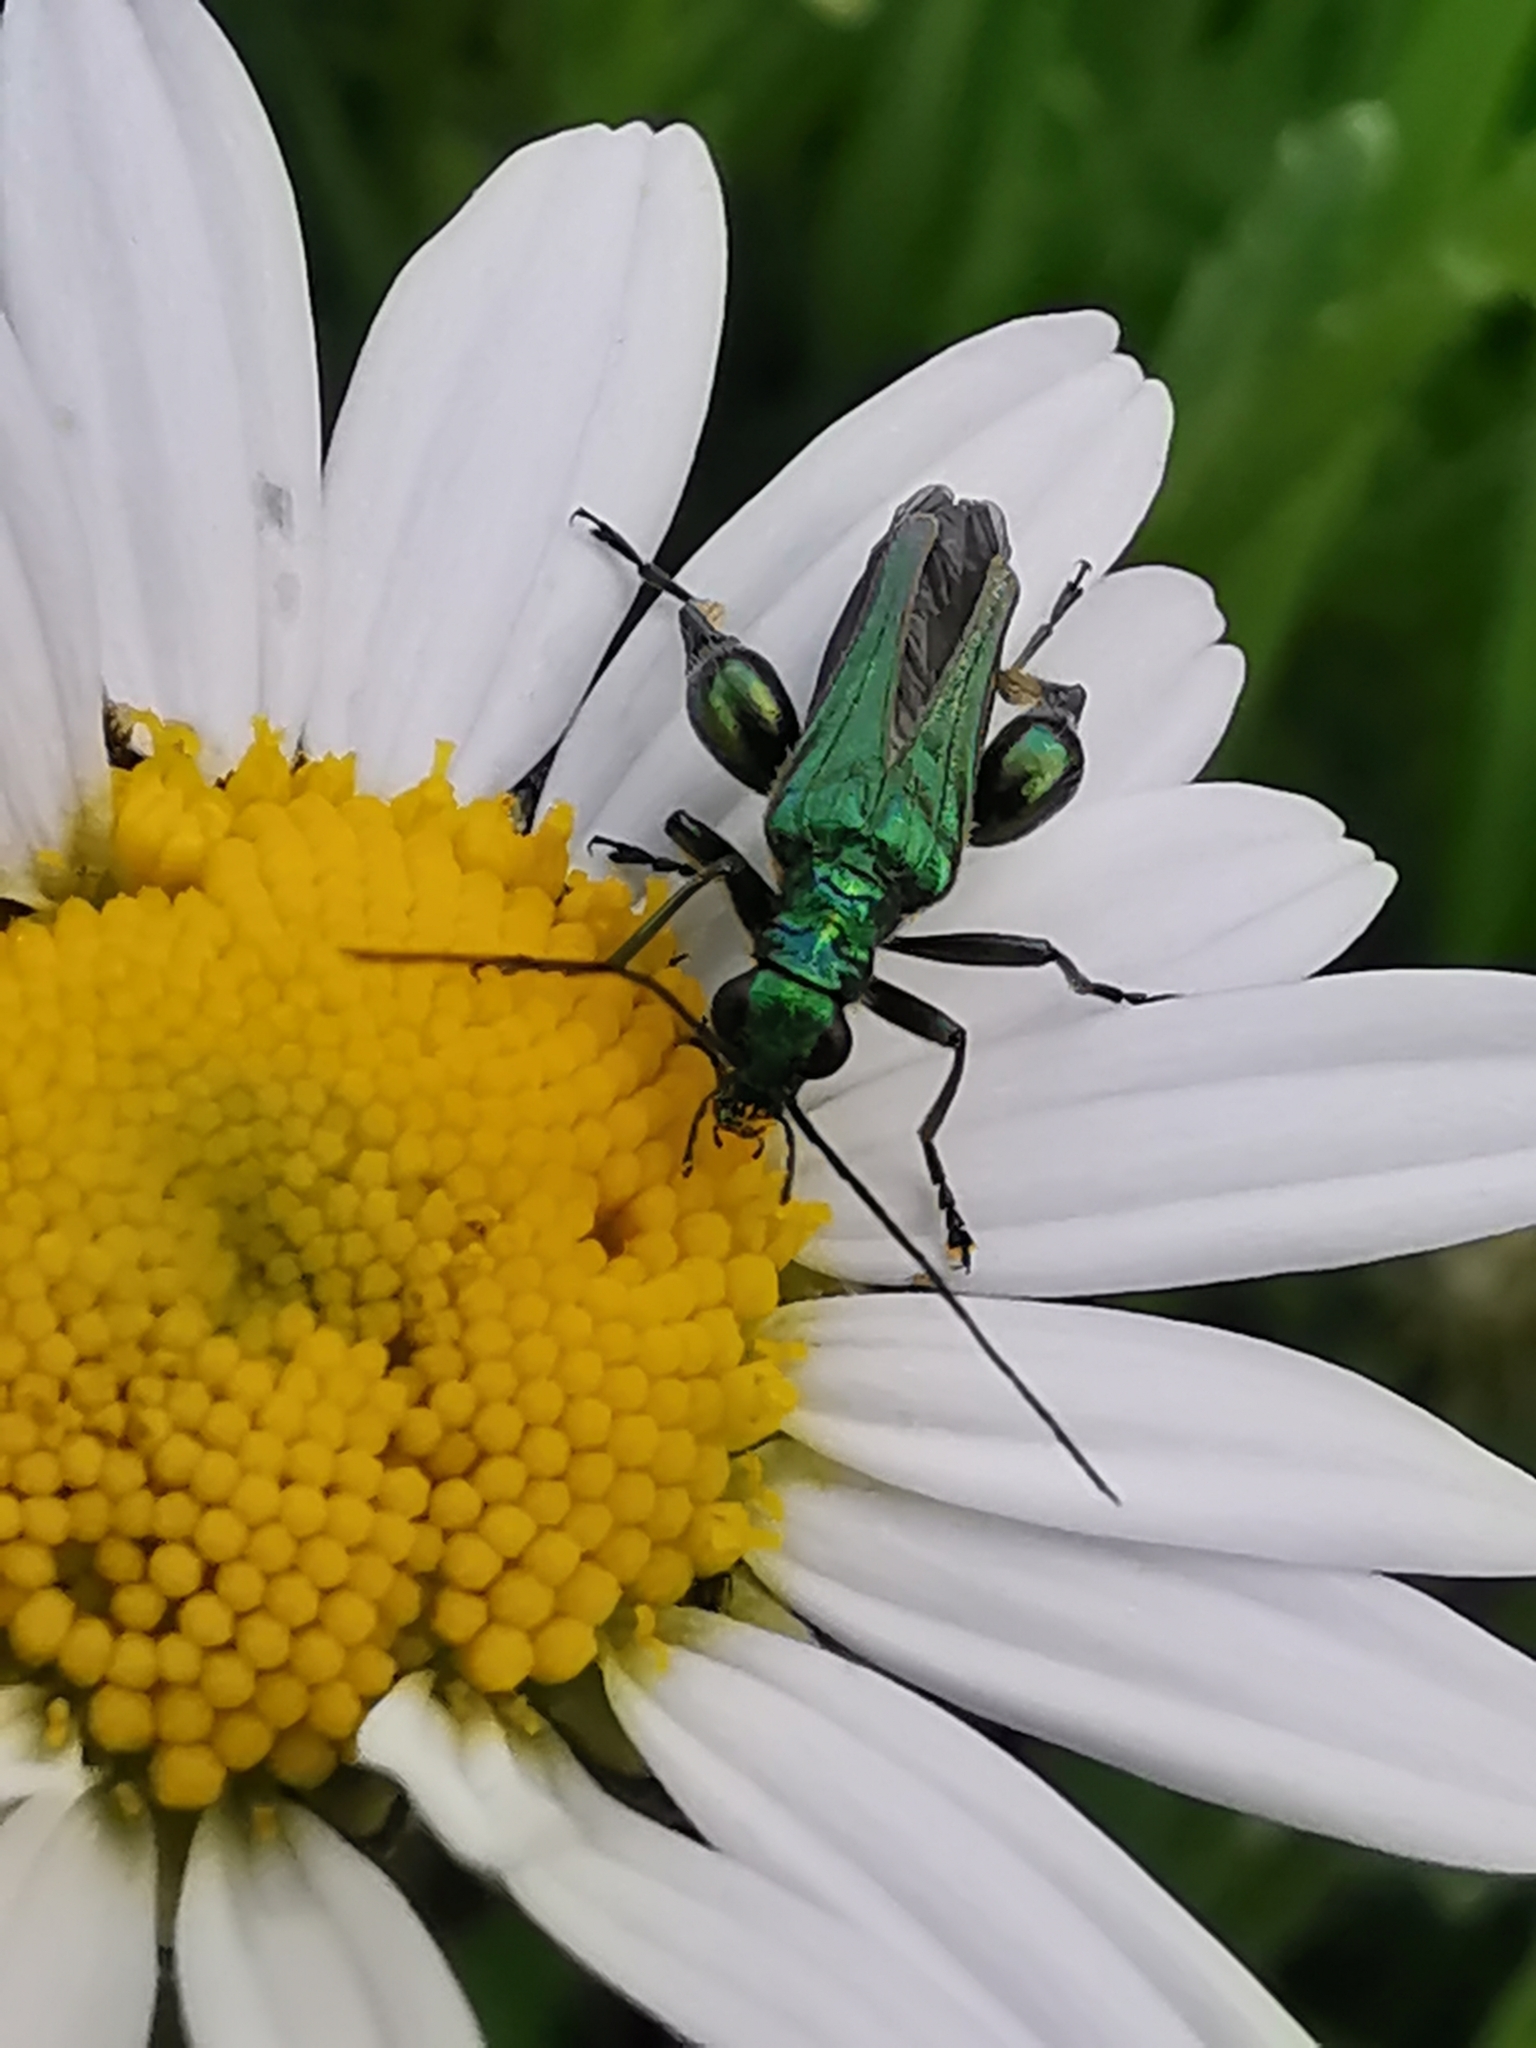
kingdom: Animalia
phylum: Arthropoda
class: Insecta
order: Coleoptera
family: Oedemeridae
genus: Oedemera
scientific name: Oedemera nobilis
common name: Swollen-thighed beetle
